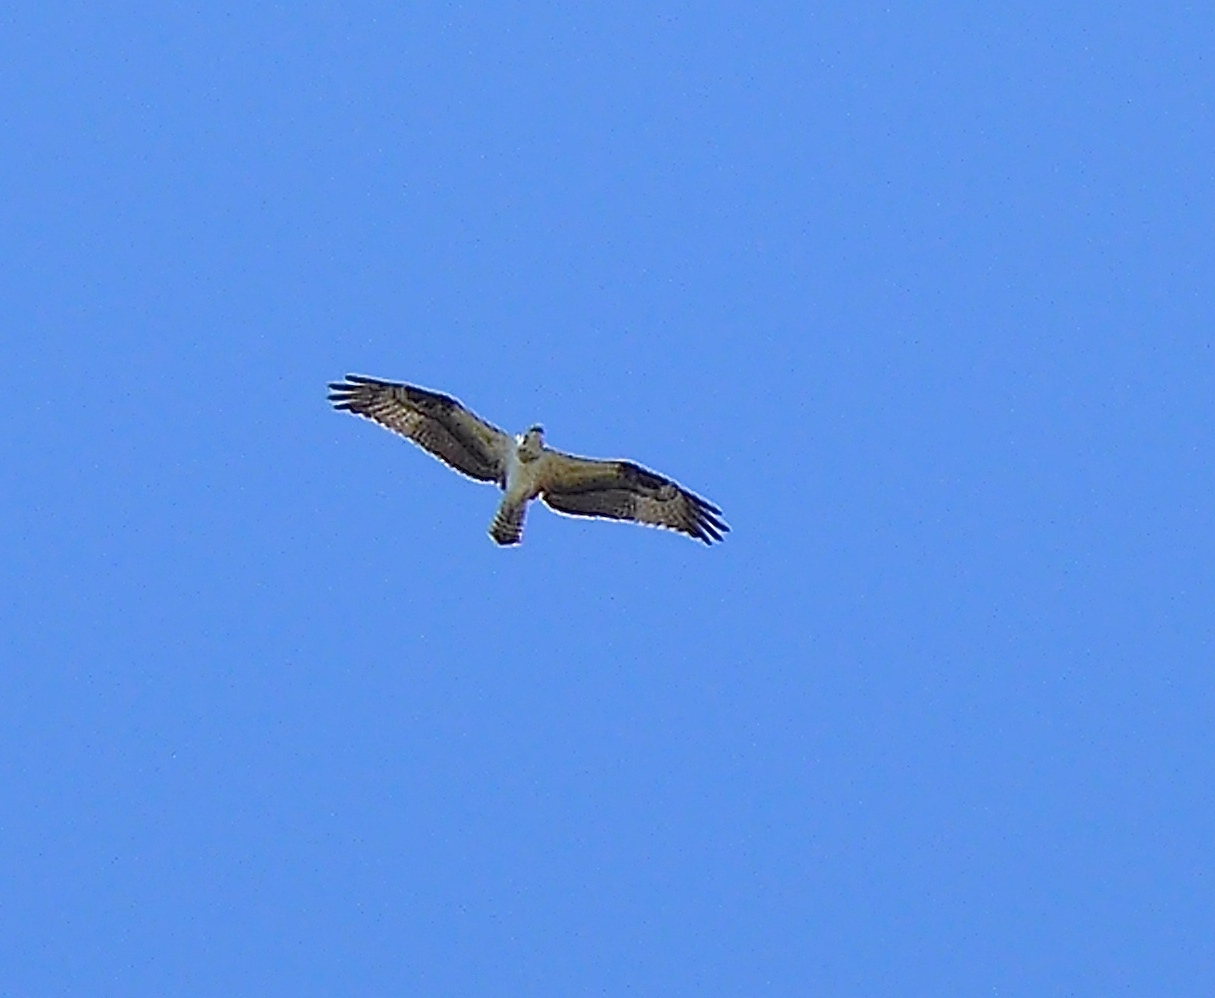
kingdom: Animalia
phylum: Chordata
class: Aves
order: Accipitriformes
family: Pandionidae
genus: Pandion
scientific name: Pandion haliaetus
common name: Osprey
